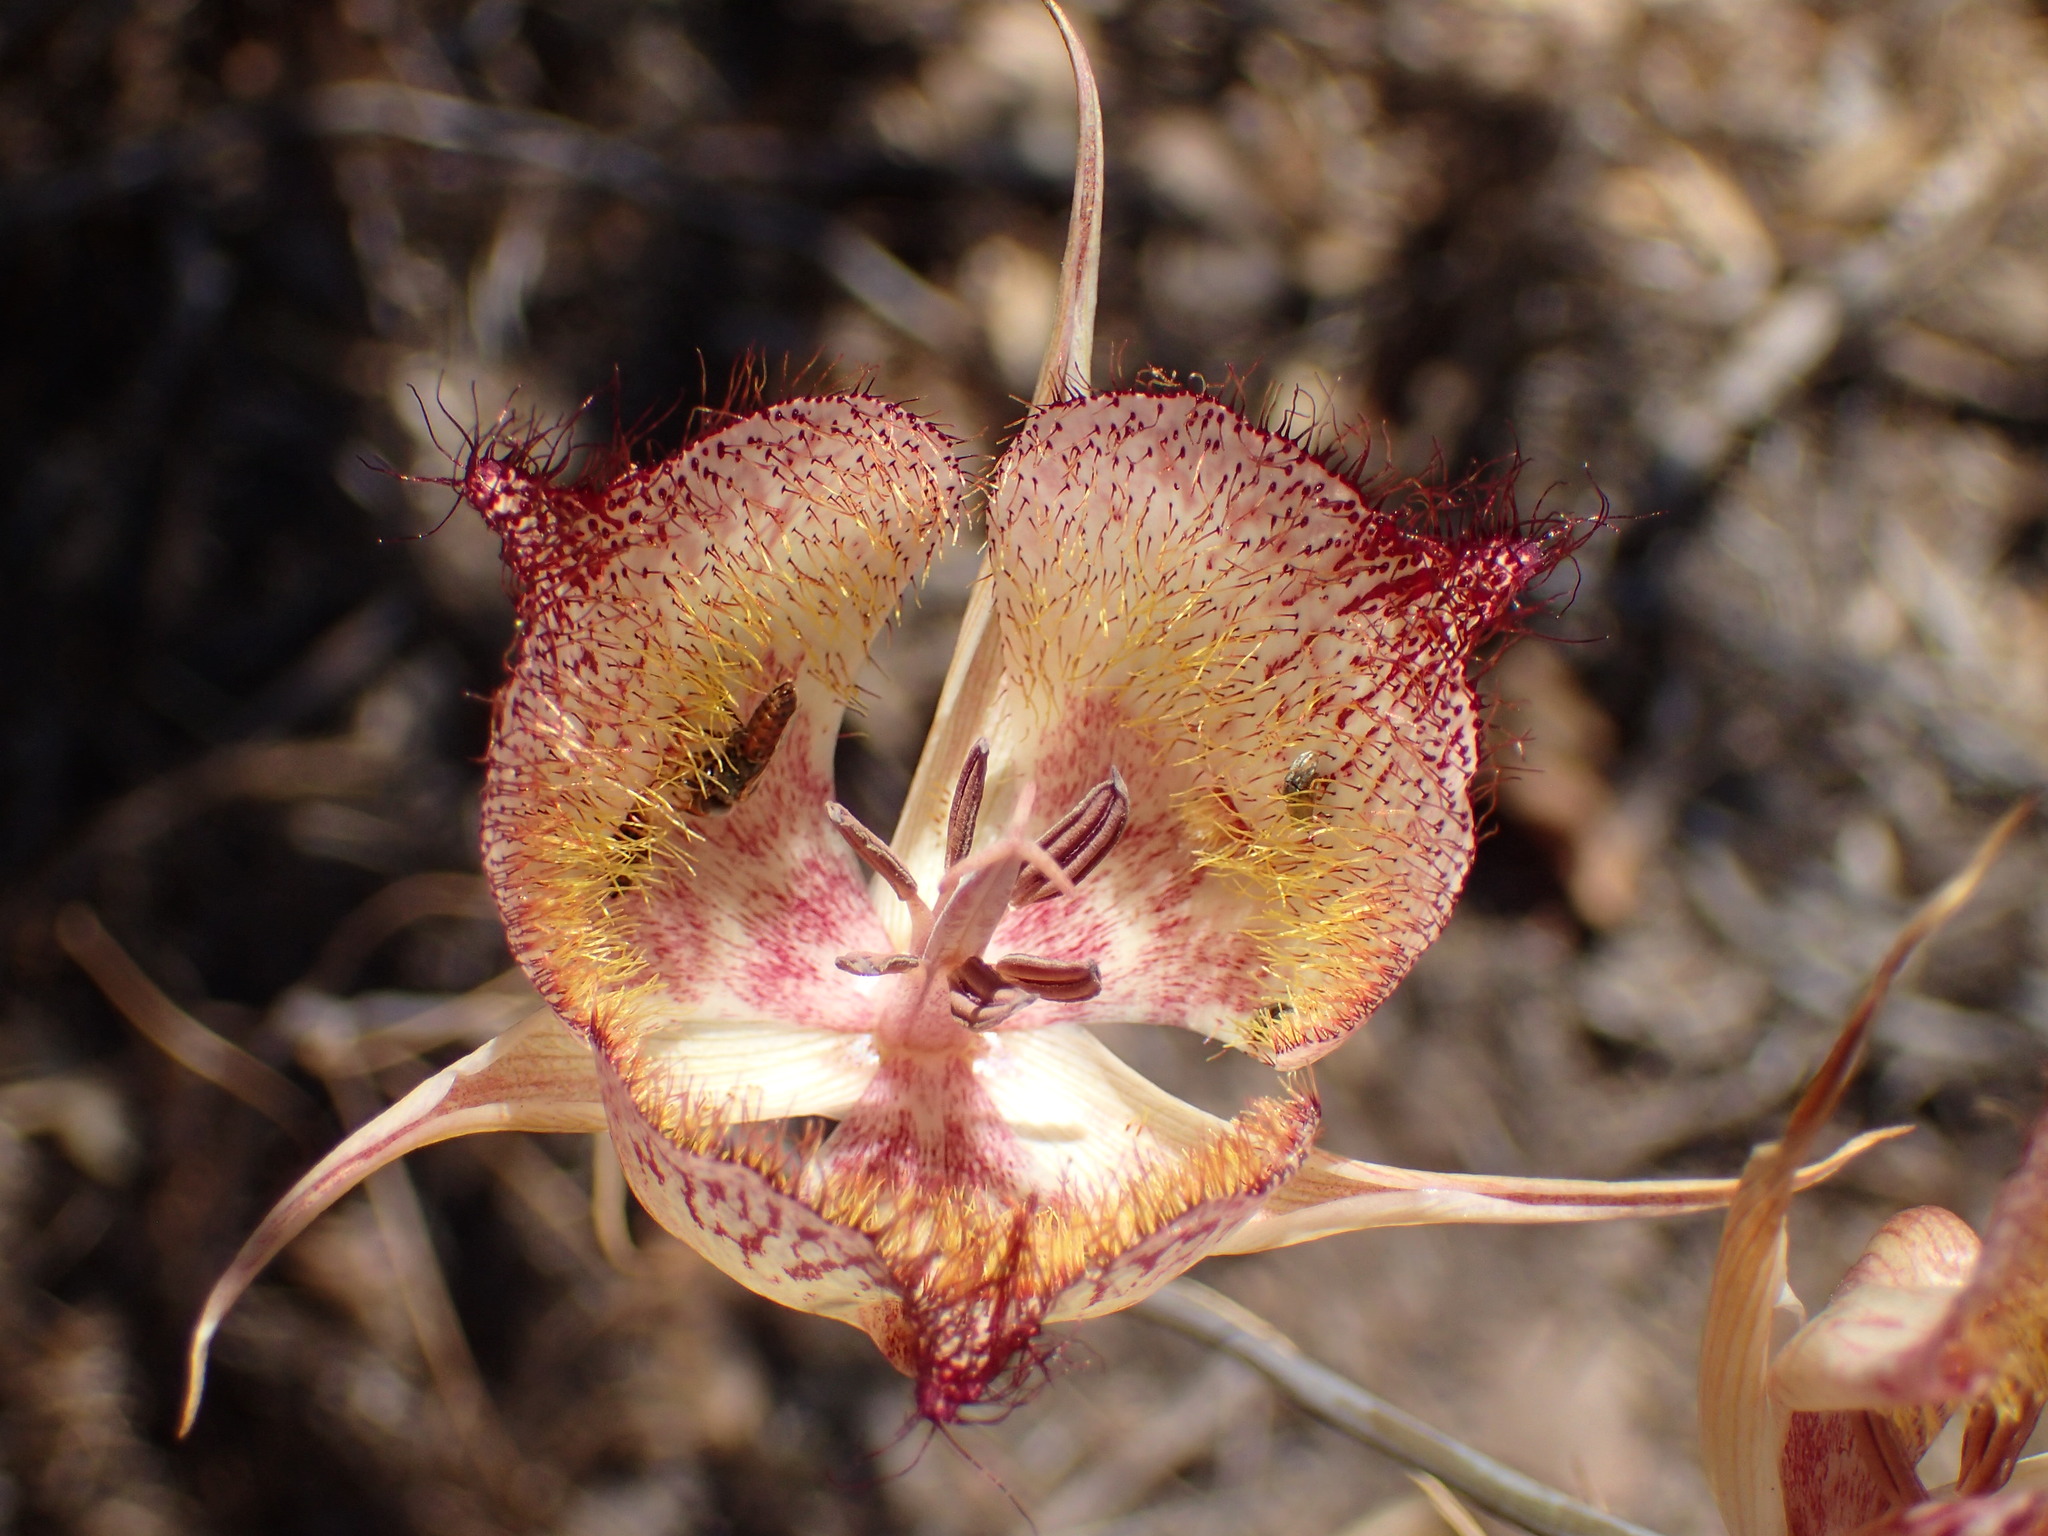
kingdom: Plantae
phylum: Tracheophyta
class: Liliopsida
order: Liliales
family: Liliaceae
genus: Calochortus
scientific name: Calochortus fimbriatus
